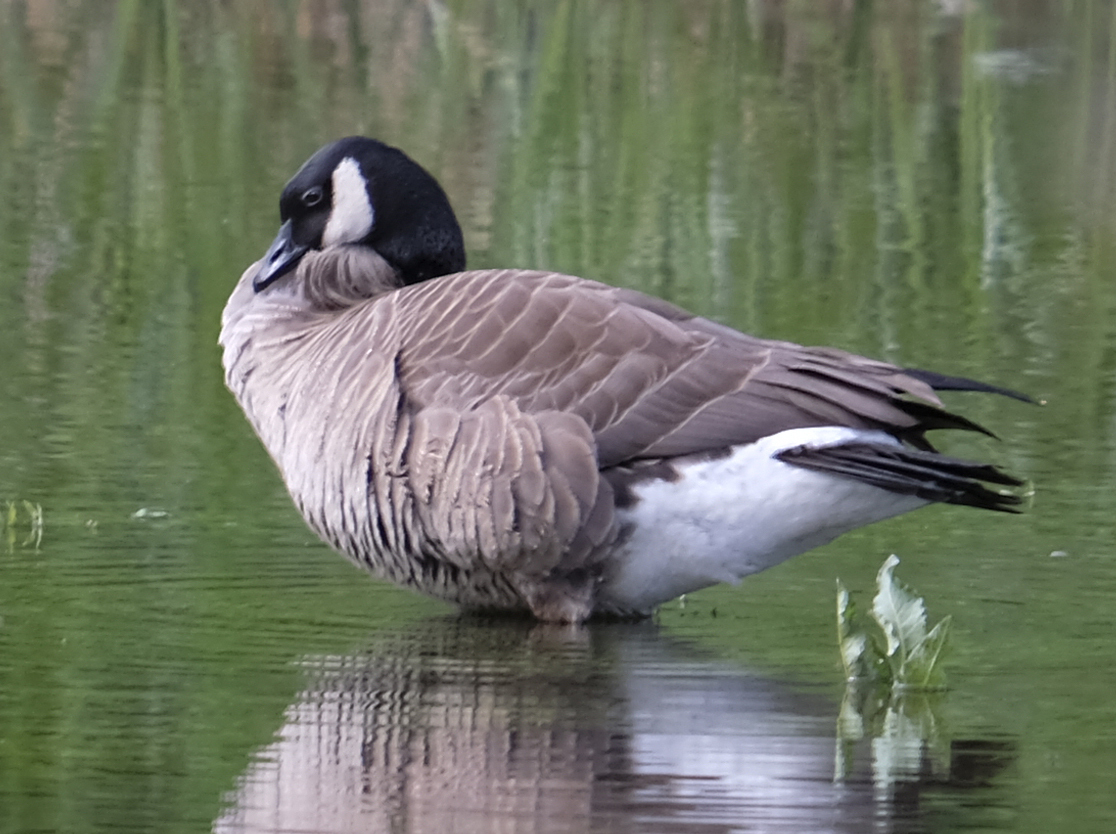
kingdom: Animalia
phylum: Chordata
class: Aves
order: Anseriformes
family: Anatidae
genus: Branta
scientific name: Branta canadensis
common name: Canada goose
